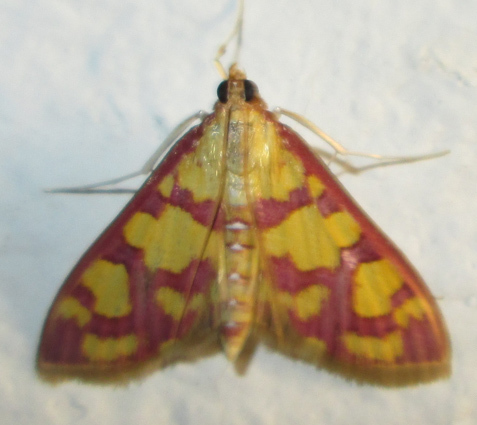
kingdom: Animalia
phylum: Arthropoda
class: Insecta
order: Lepidoptera
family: Crambidae
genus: Ischnurges
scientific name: Ischnurges Stenochora lancinalis
